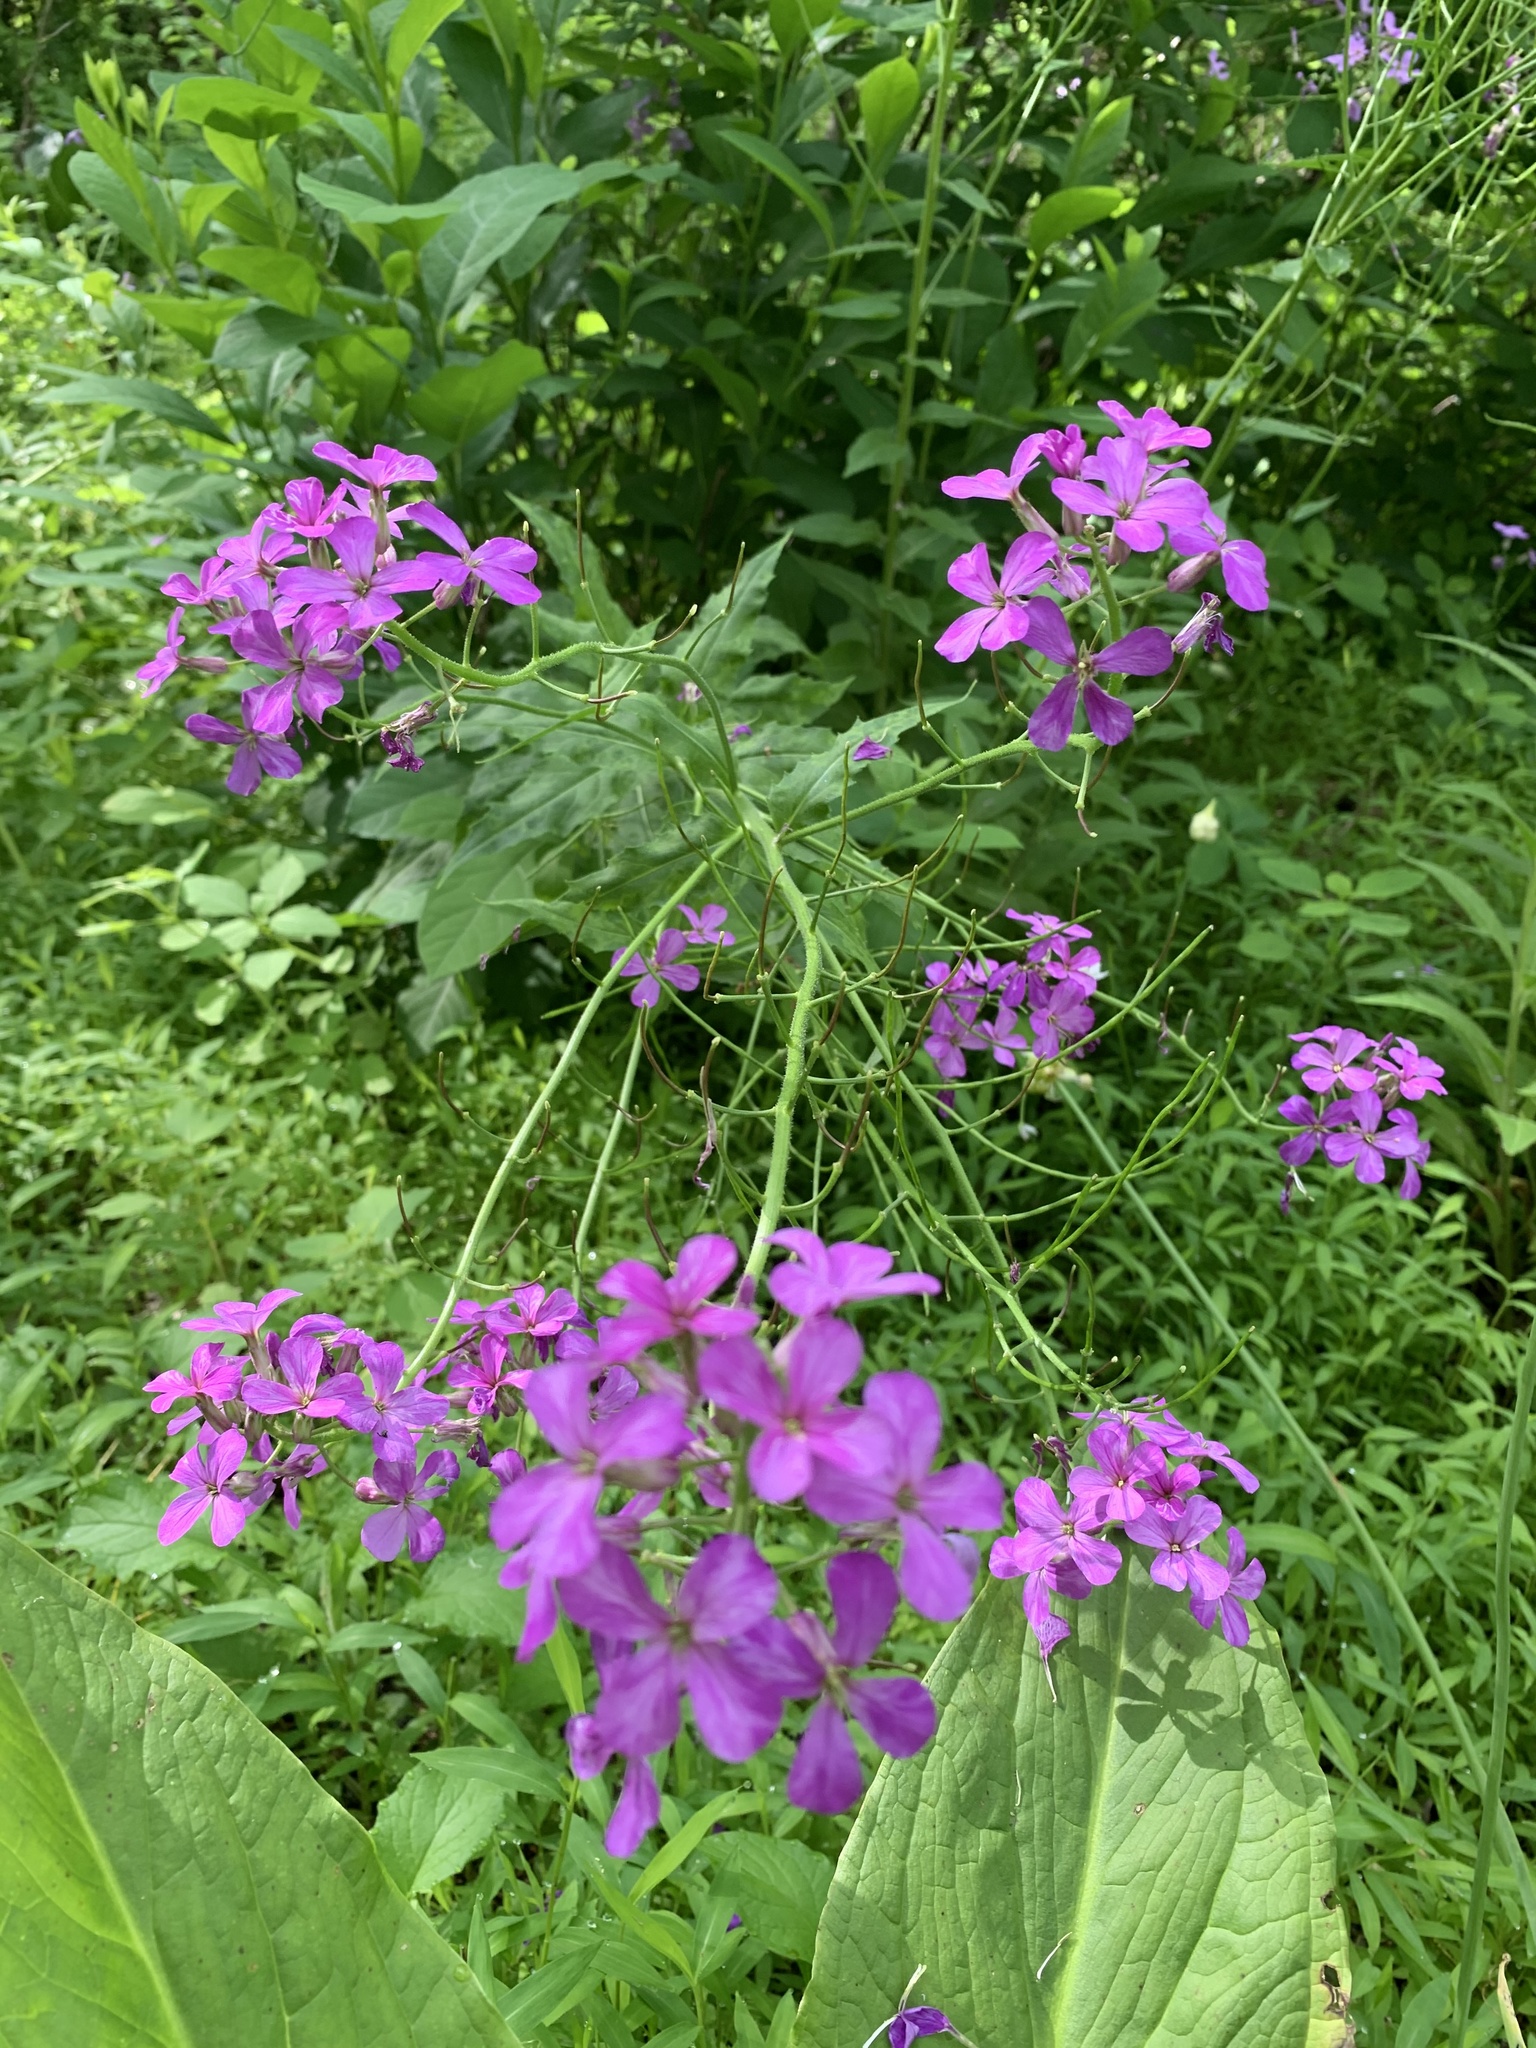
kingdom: Plantae
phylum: Tracheophyta
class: Magnoliopsida
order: Brassicales
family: Brassicaceae
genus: Hesperis
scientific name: Hesperis matronalis
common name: Dame's-violet
